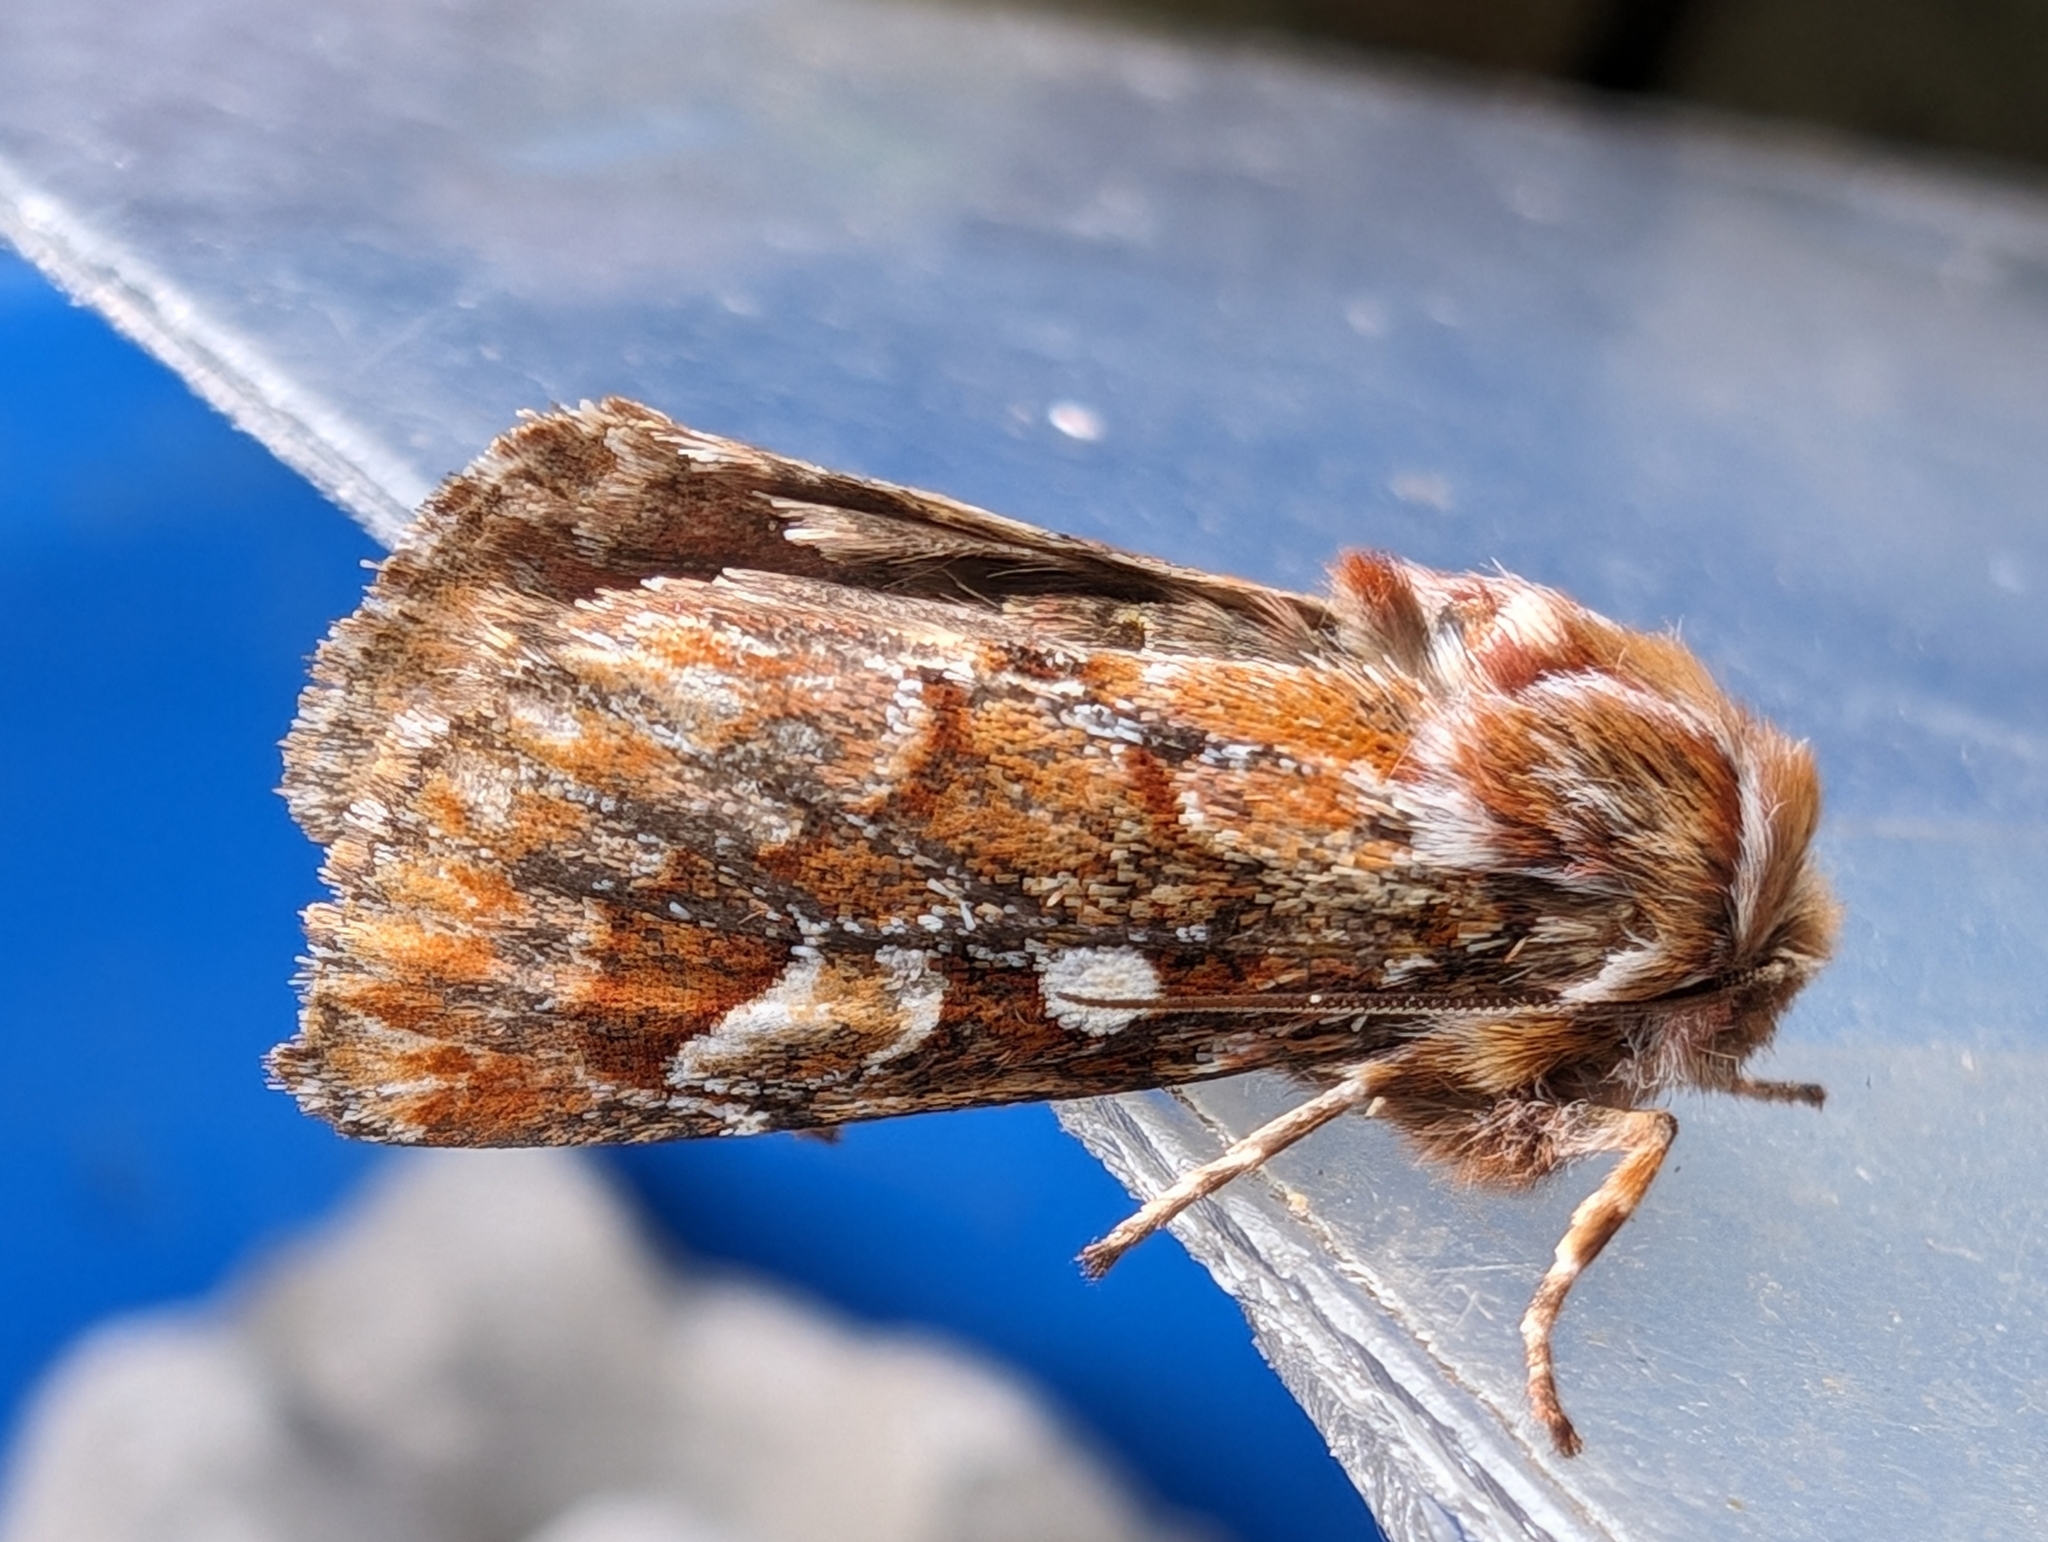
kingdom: Animalia
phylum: Arthropoda
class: Insecta
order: Lepidoptera
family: Noctuidae
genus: Panolis
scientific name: Panolis flammea
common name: Pine beauty
